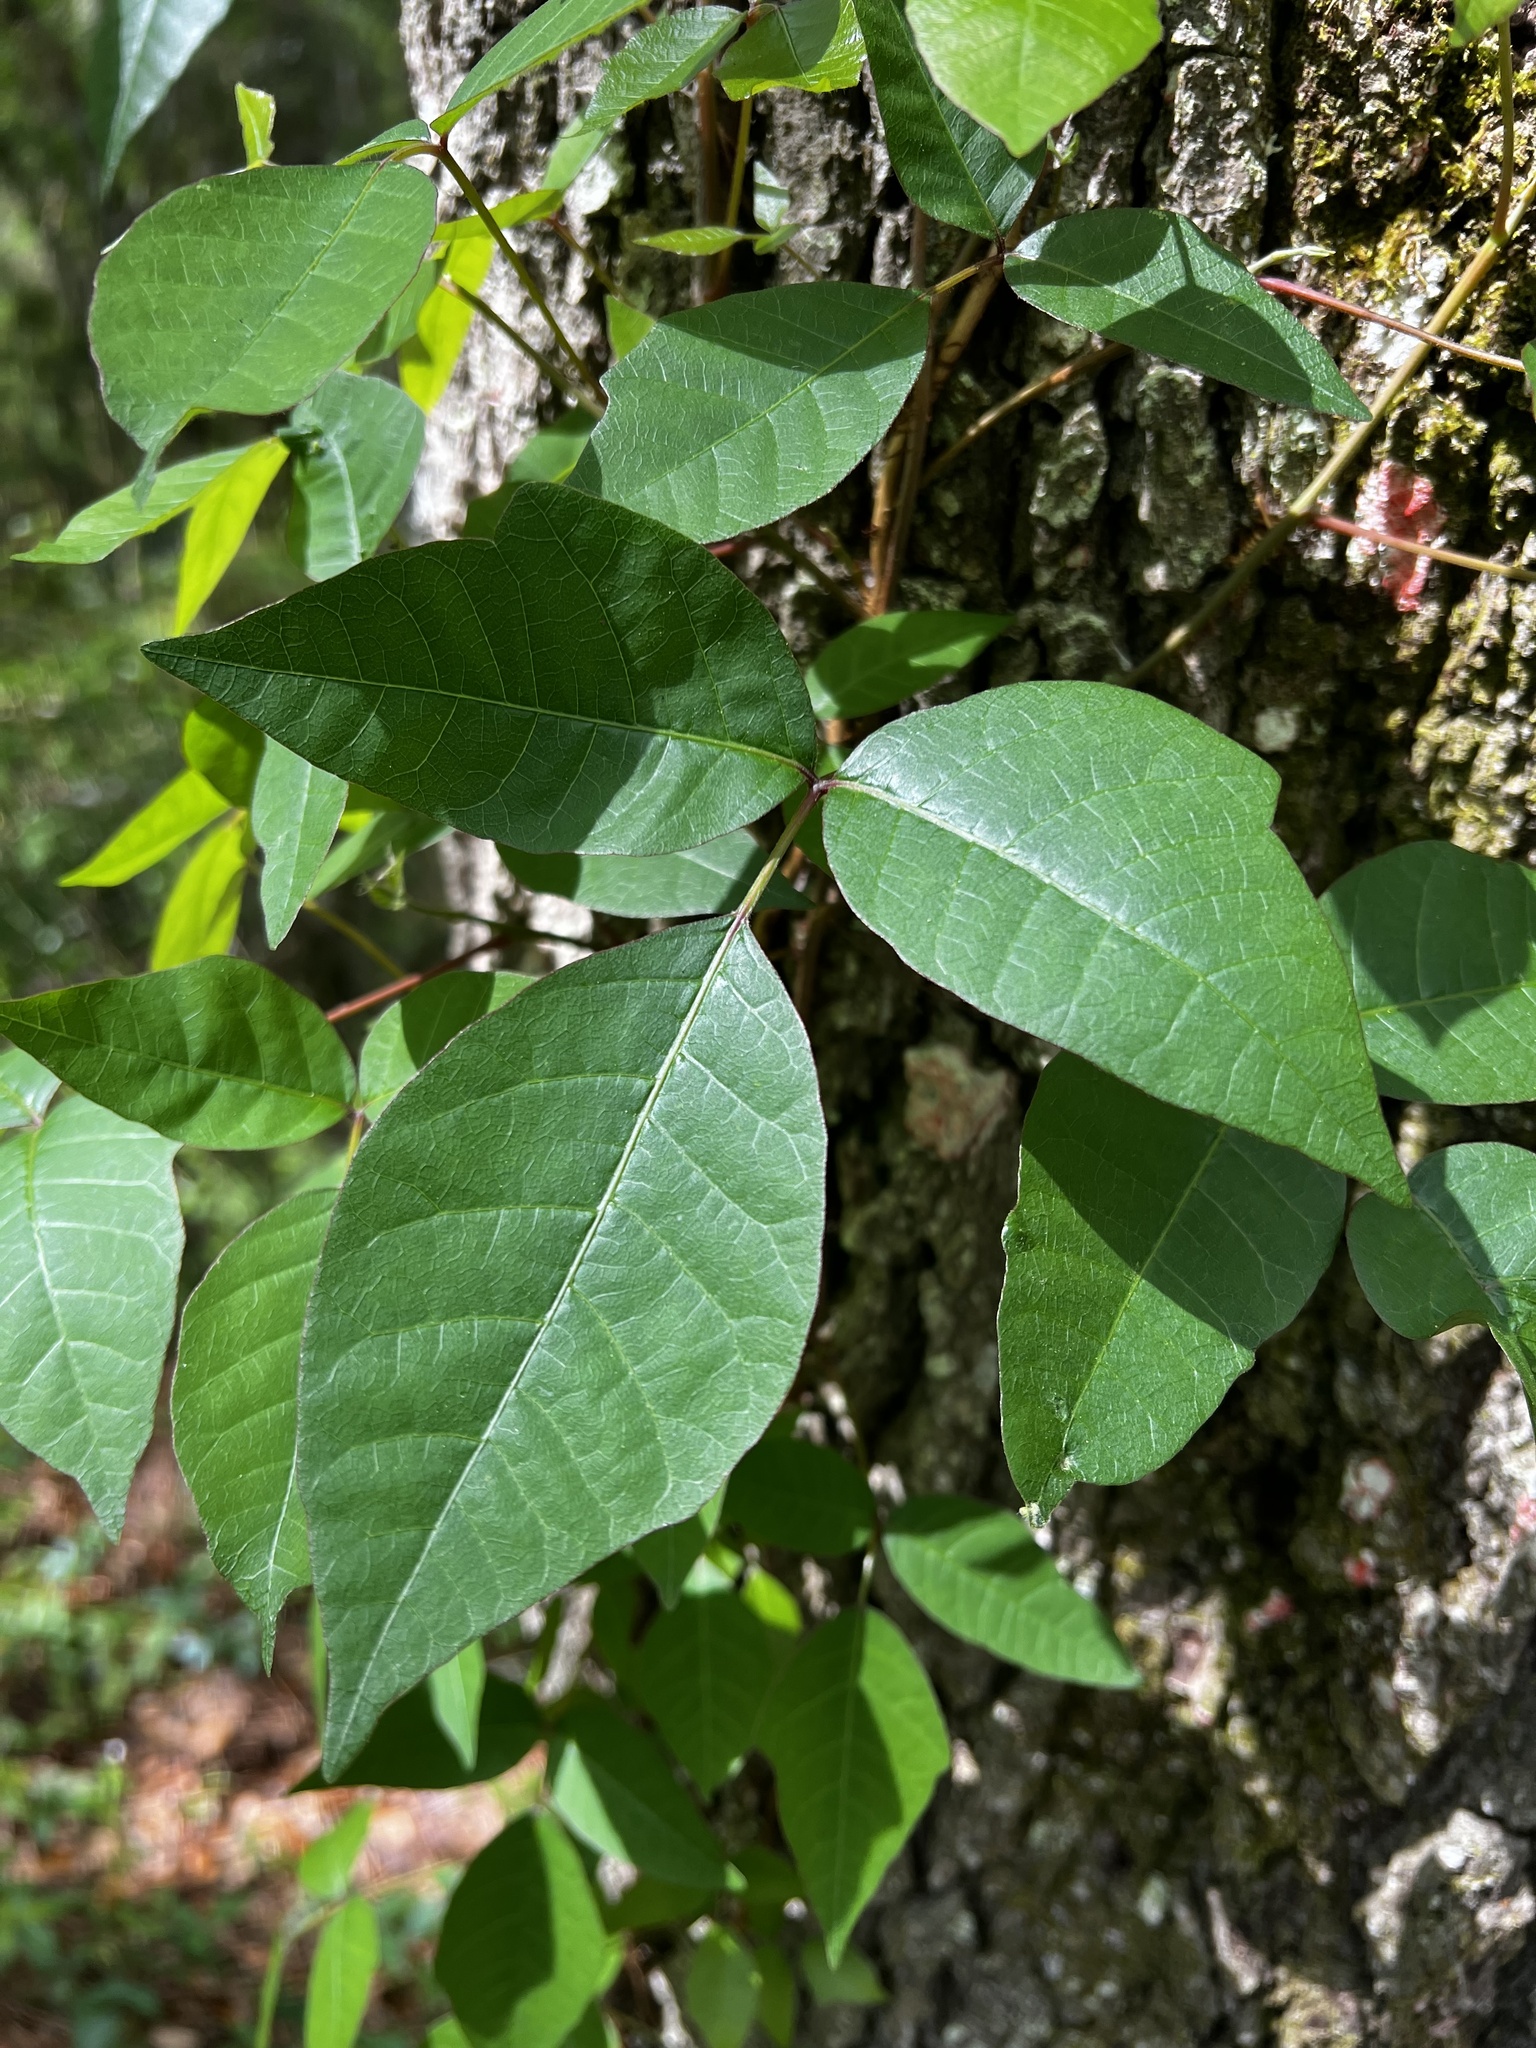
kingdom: Plantae
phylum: Tracheophyta
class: Magnoliopsida
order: Sapindales
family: Anacardiaceae
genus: Toxicodendron
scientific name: Toxicodendron radicans
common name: Poison ivy
